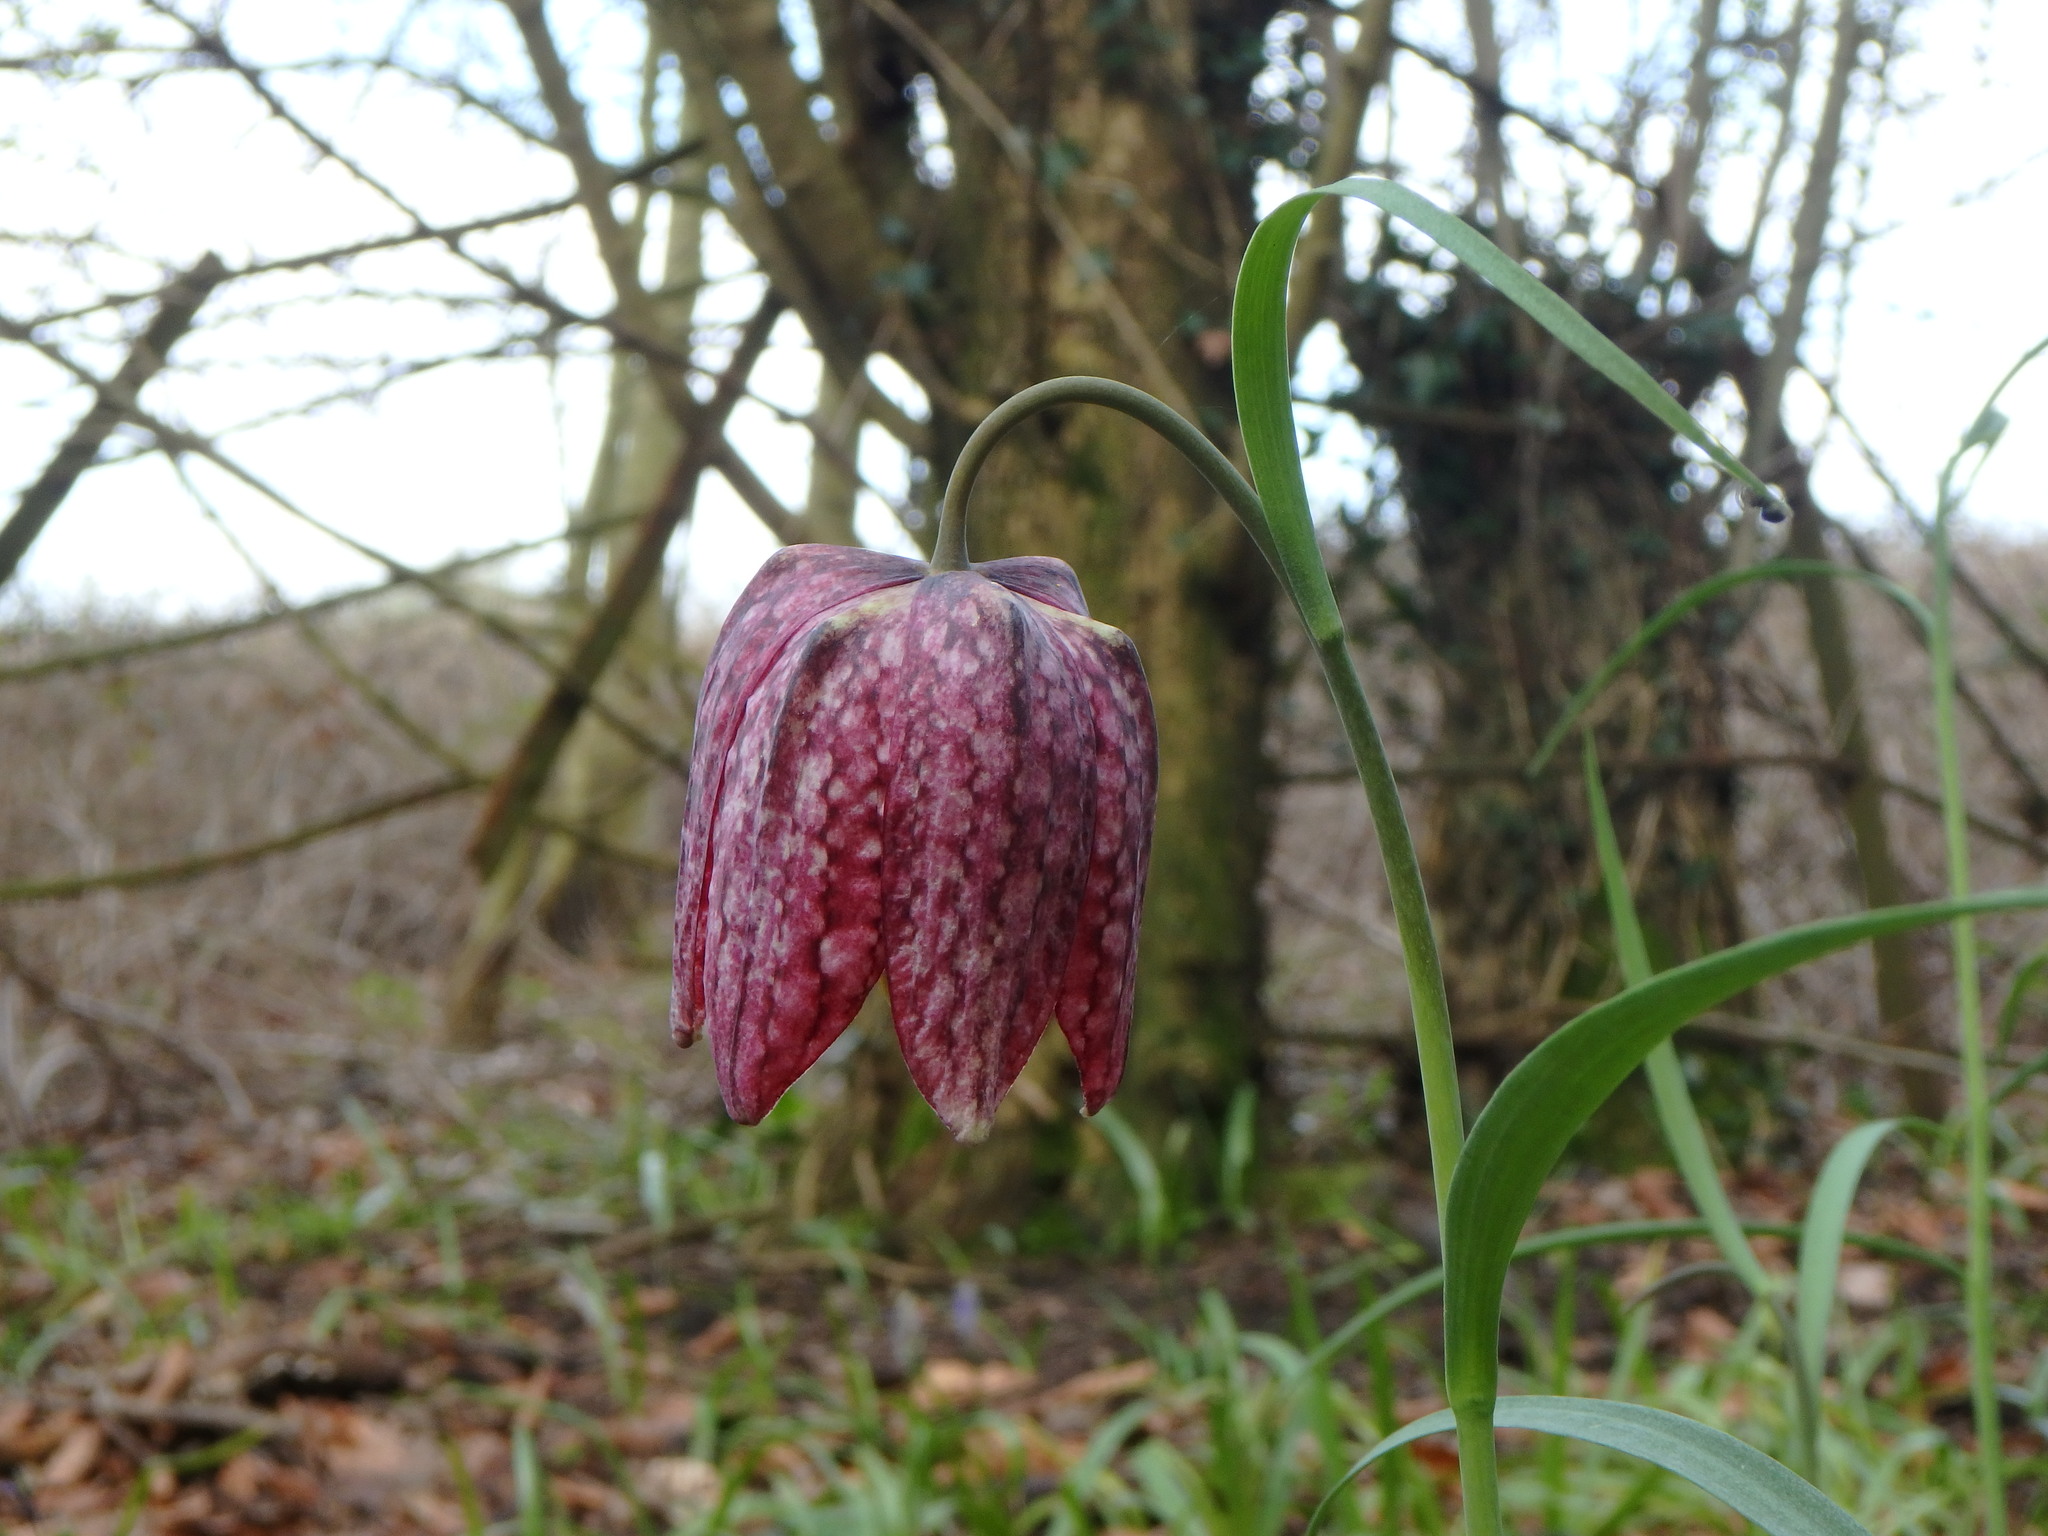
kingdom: Plantae
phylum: Tracheophyta
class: Liliopsida
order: Liliales
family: Liliaceae
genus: Fritillaria
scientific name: Fritillaria meleagris
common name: Fritillary
